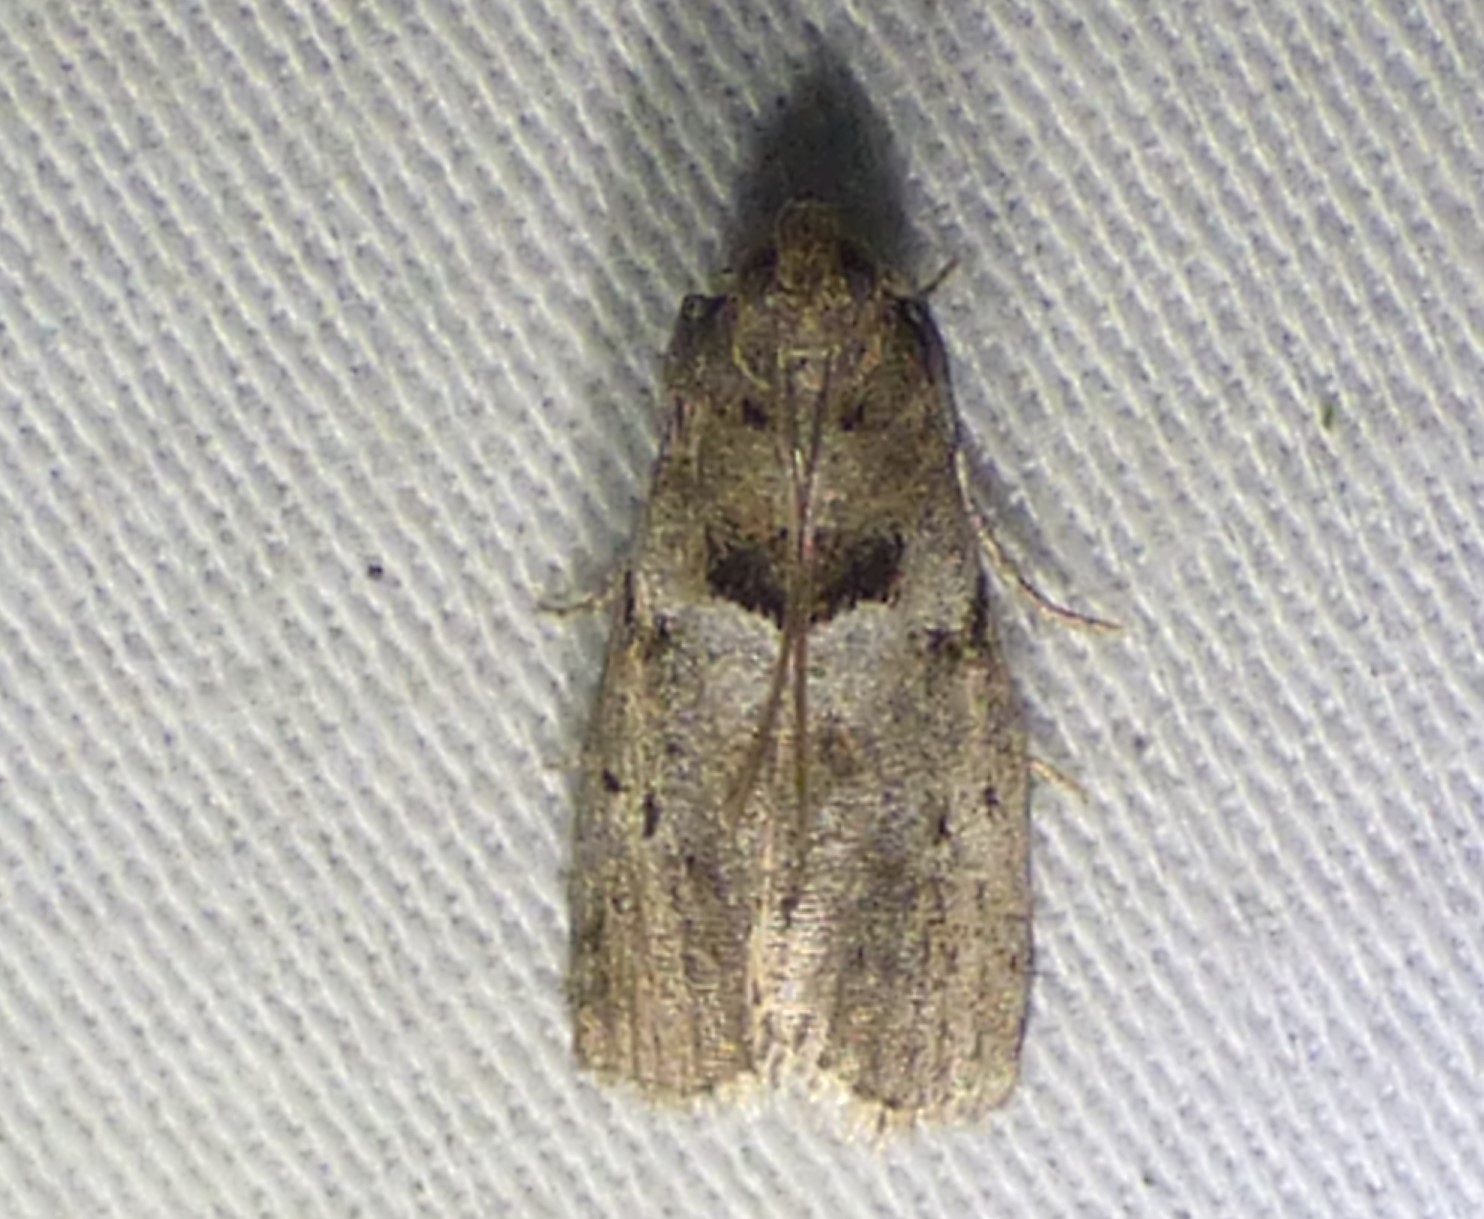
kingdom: Animalia
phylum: Arthropoda
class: Insecta
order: Lepidoptera
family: Pyralidae
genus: Salebriaria
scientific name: Salebriaria annulosella
